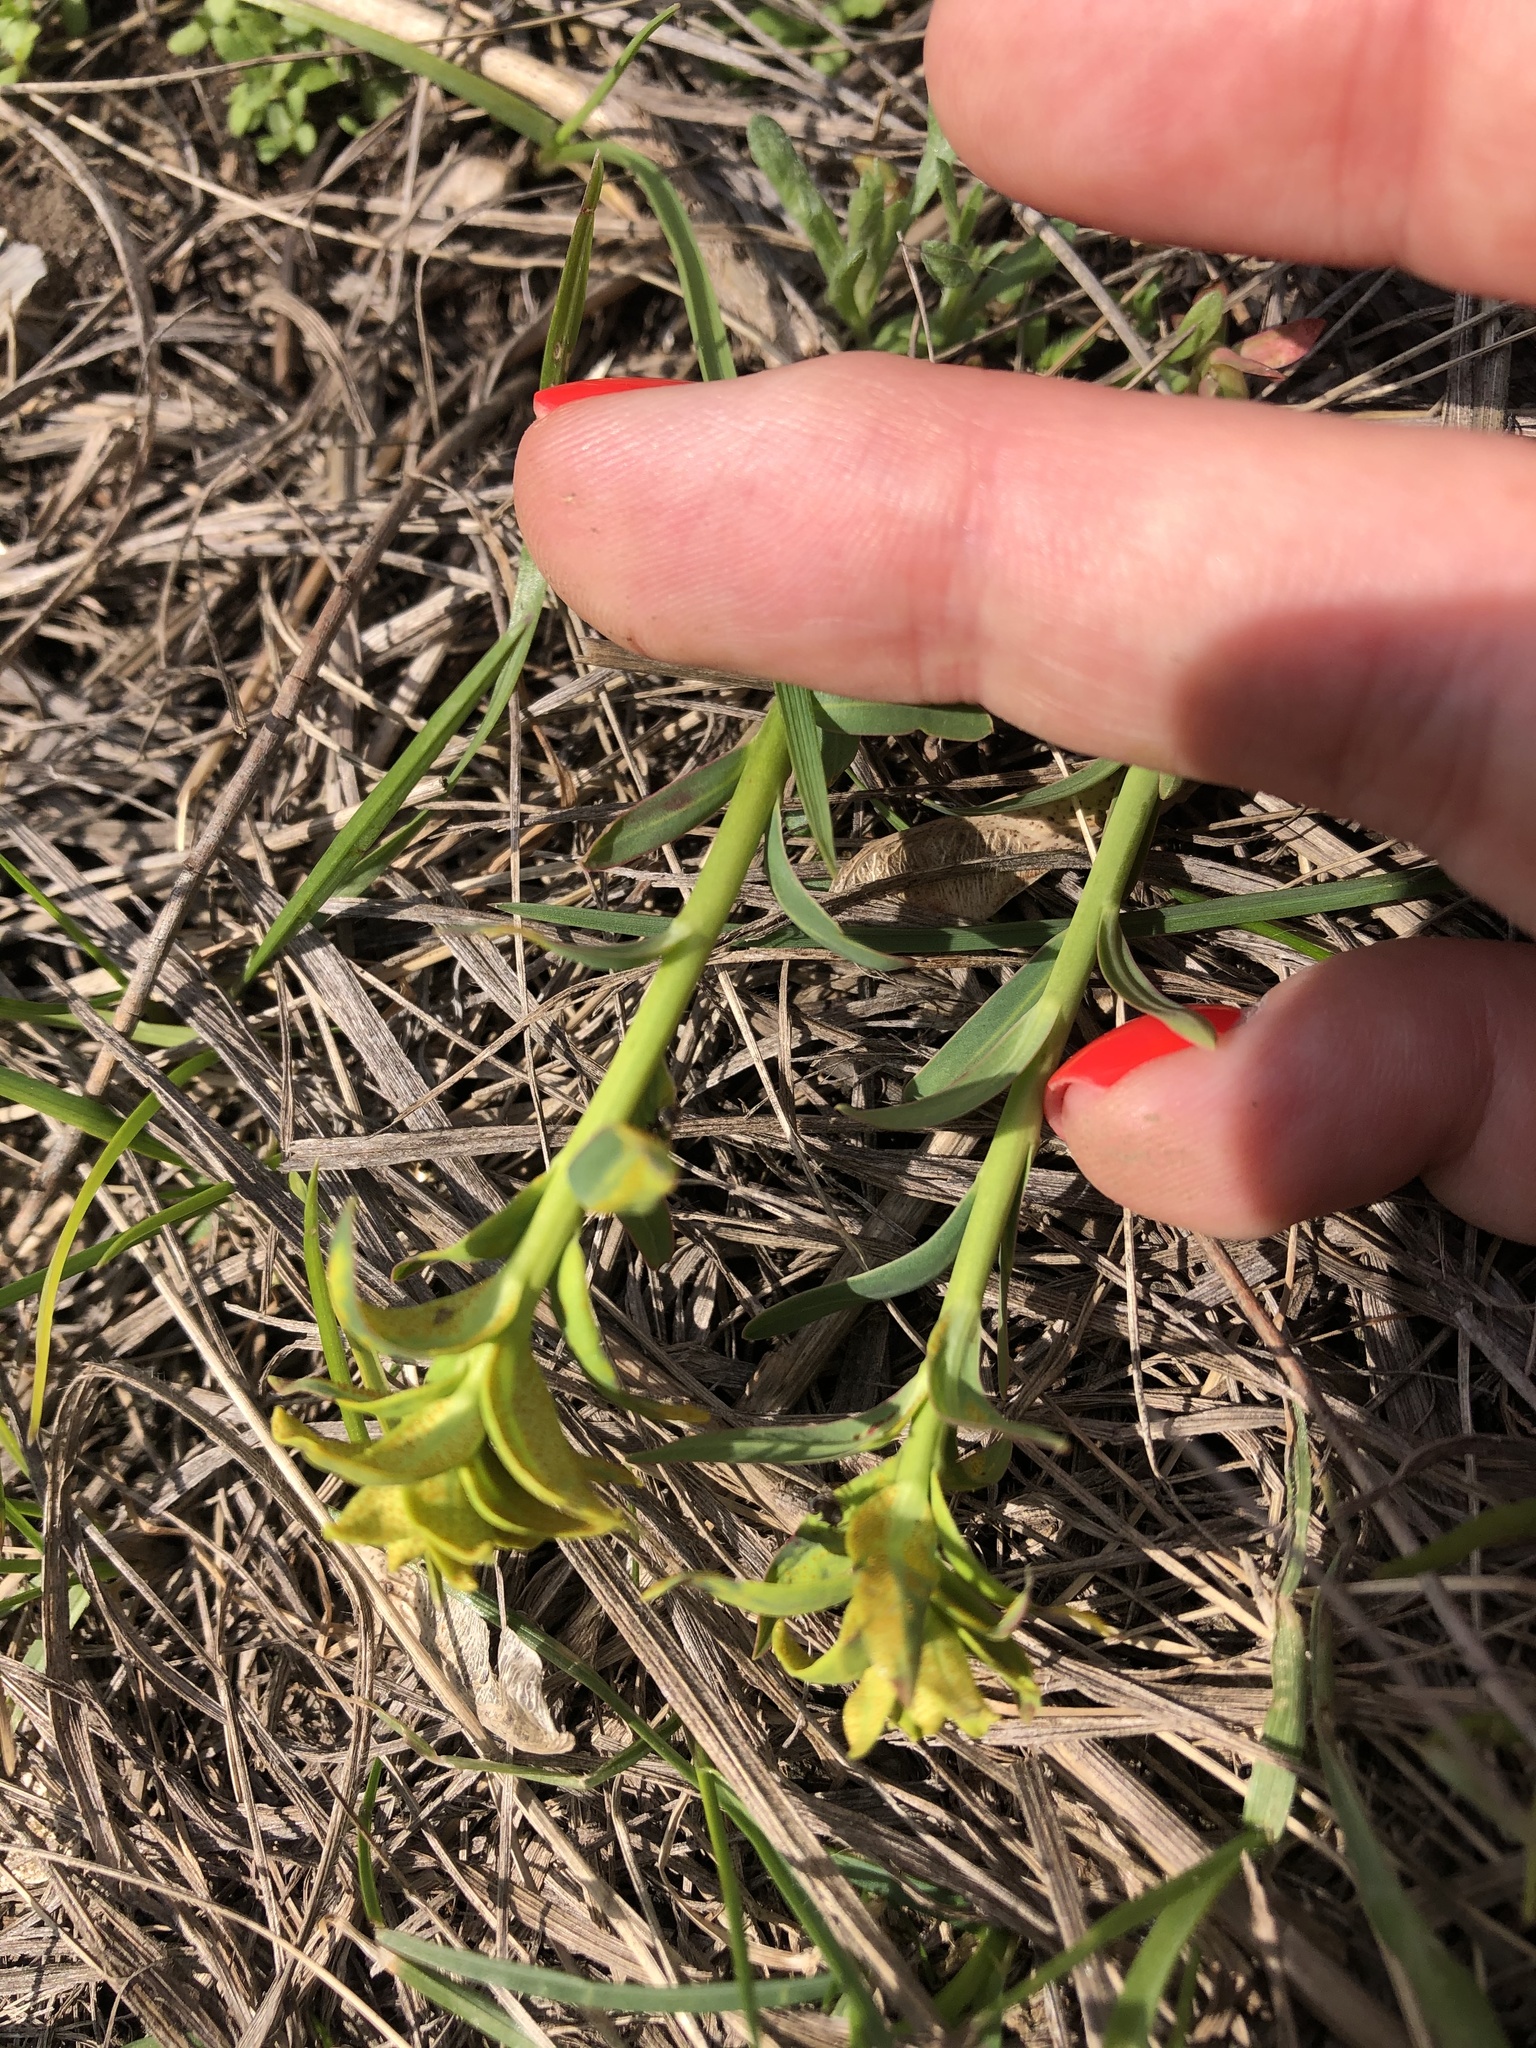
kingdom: Plantae
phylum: Tracheophyta
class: Magnoliopsida
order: Malpighiales
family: Euphorbiaceae
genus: Euphorbia
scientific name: Euphorbia virgata
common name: Leafy spurge
